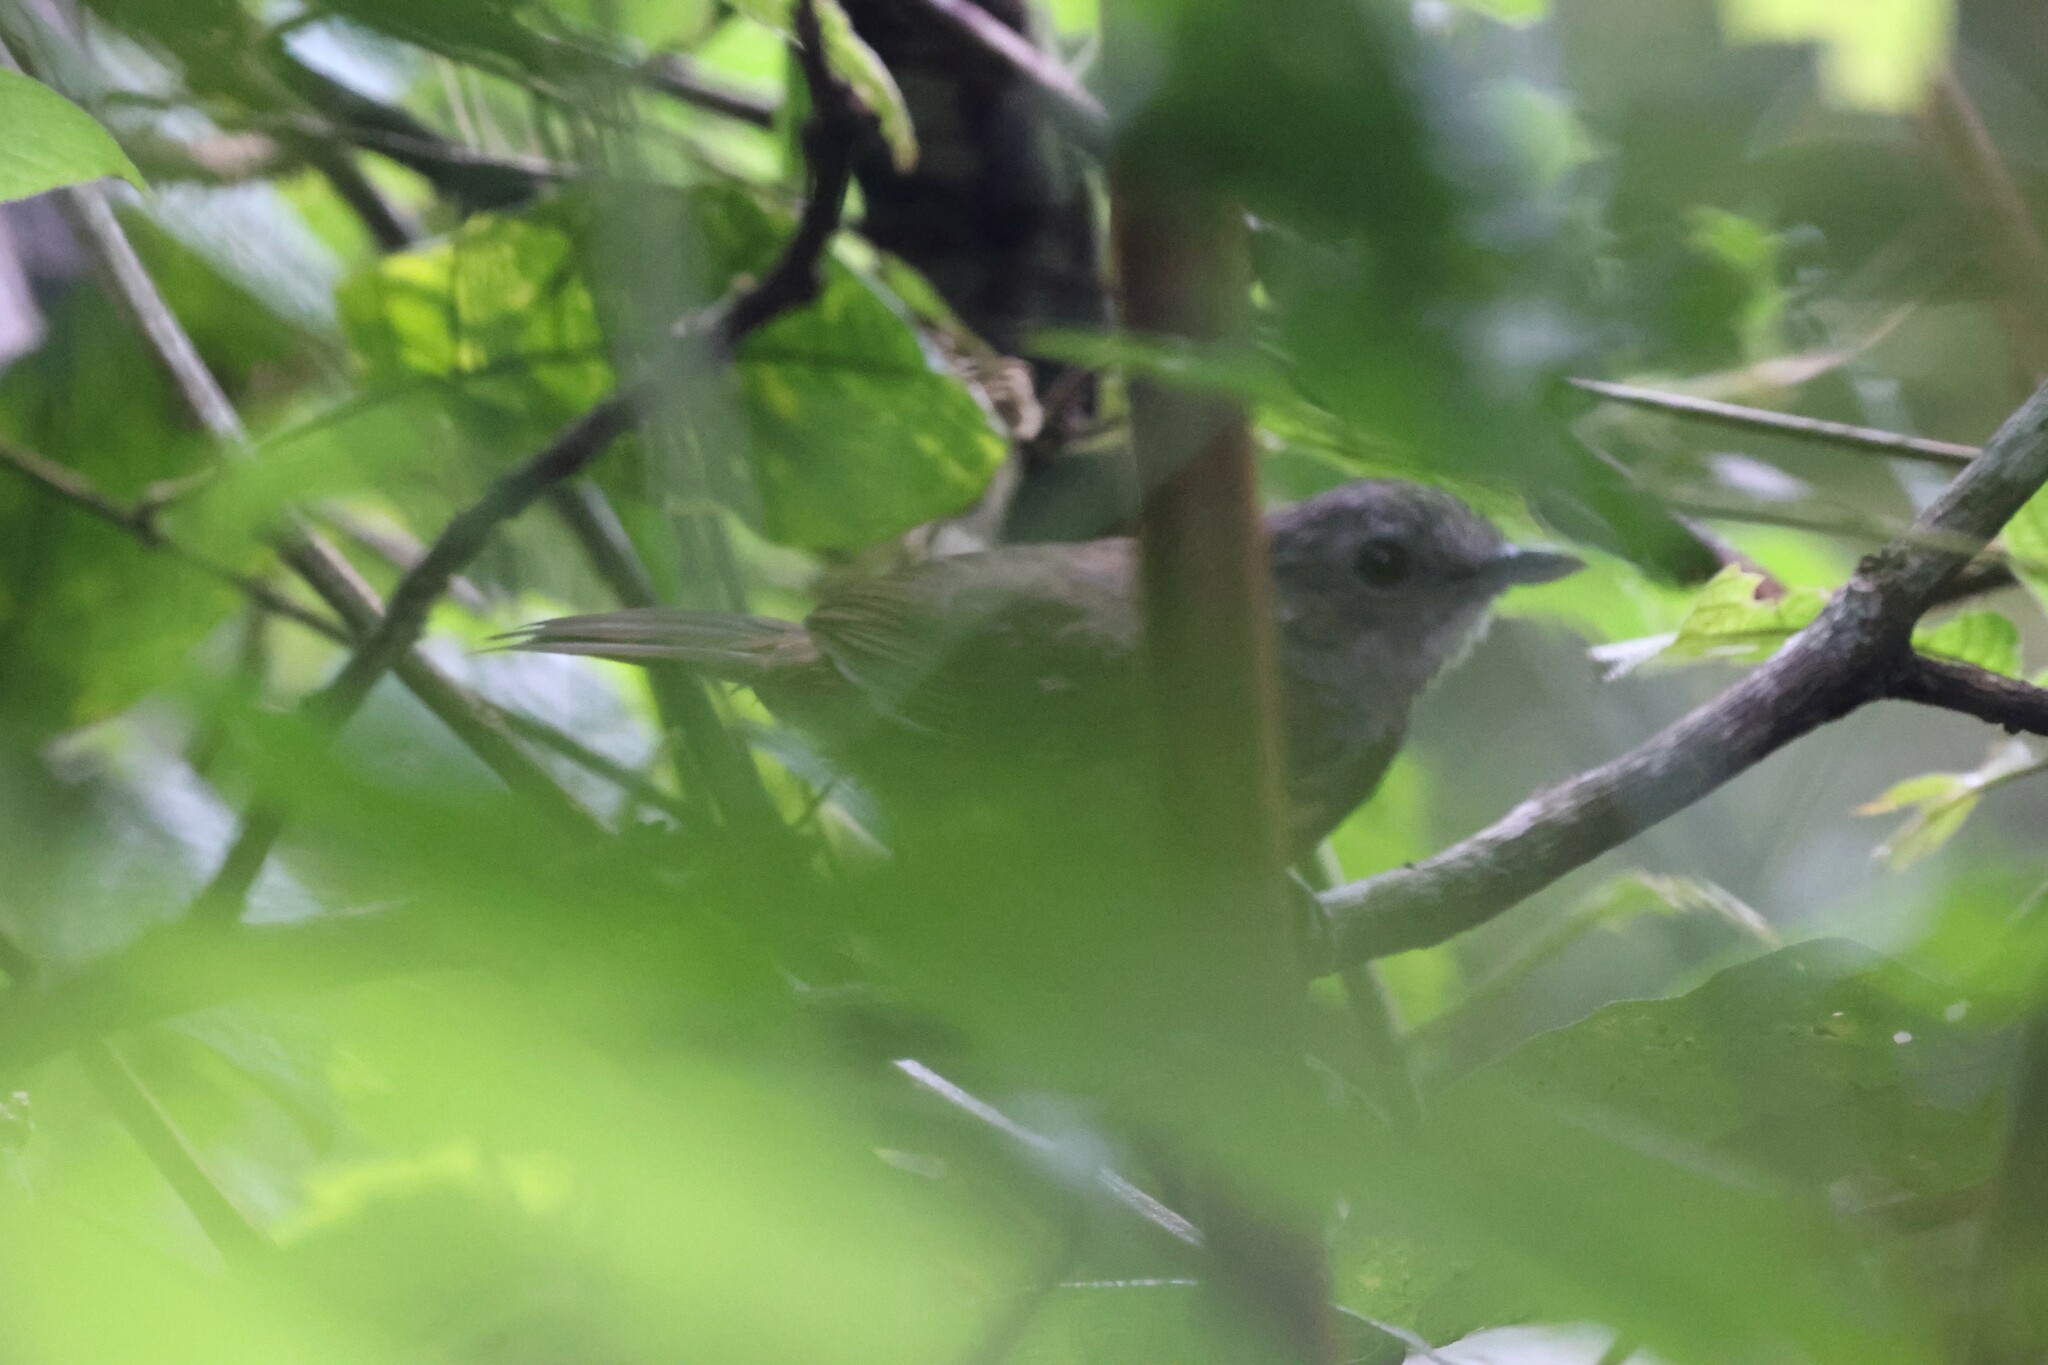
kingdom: Animalia
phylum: Chordata
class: Aves
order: Passeriformes
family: Pellorneidae
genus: Illadopsis
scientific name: Illadopsis
